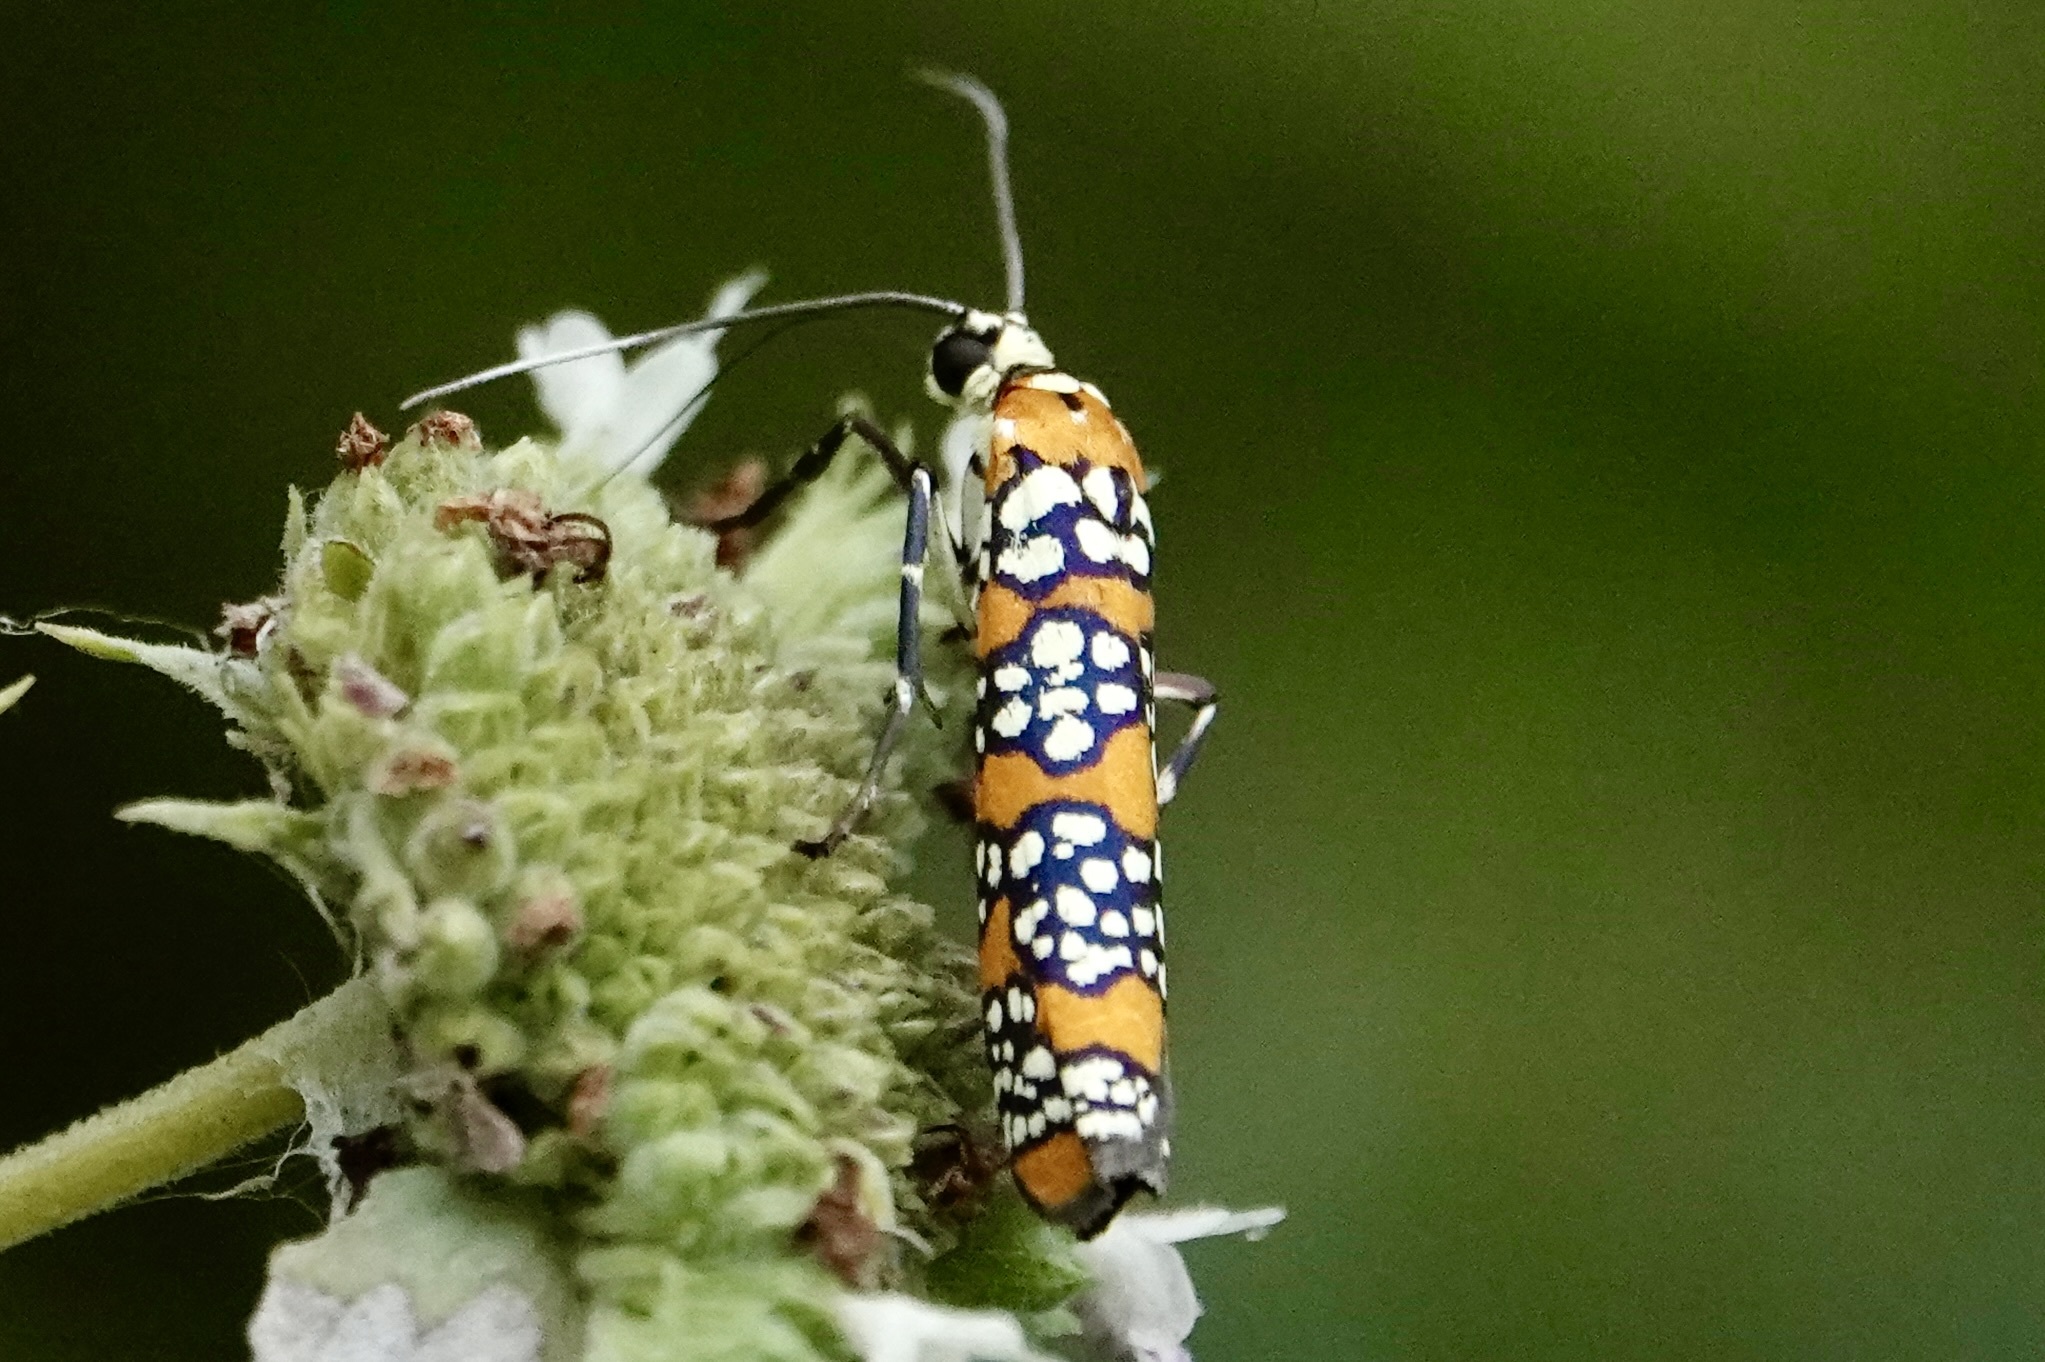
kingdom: Animalia
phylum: Arthropoda
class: Insecta
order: Lepidoptera
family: Attevidae
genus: Atteva
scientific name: Atteva punctella
